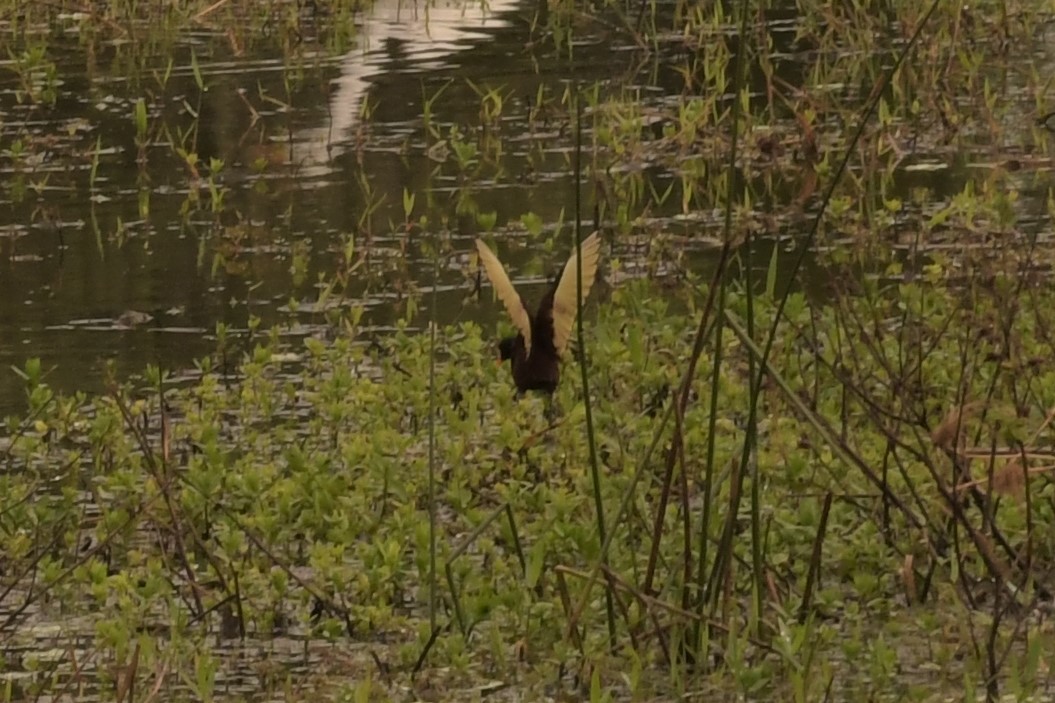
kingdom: Animalia
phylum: Chordata
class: Aves
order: Charadriiformes
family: Jacanidae
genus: Jacana
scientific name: Jacana spinosa
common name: Northern jacana
